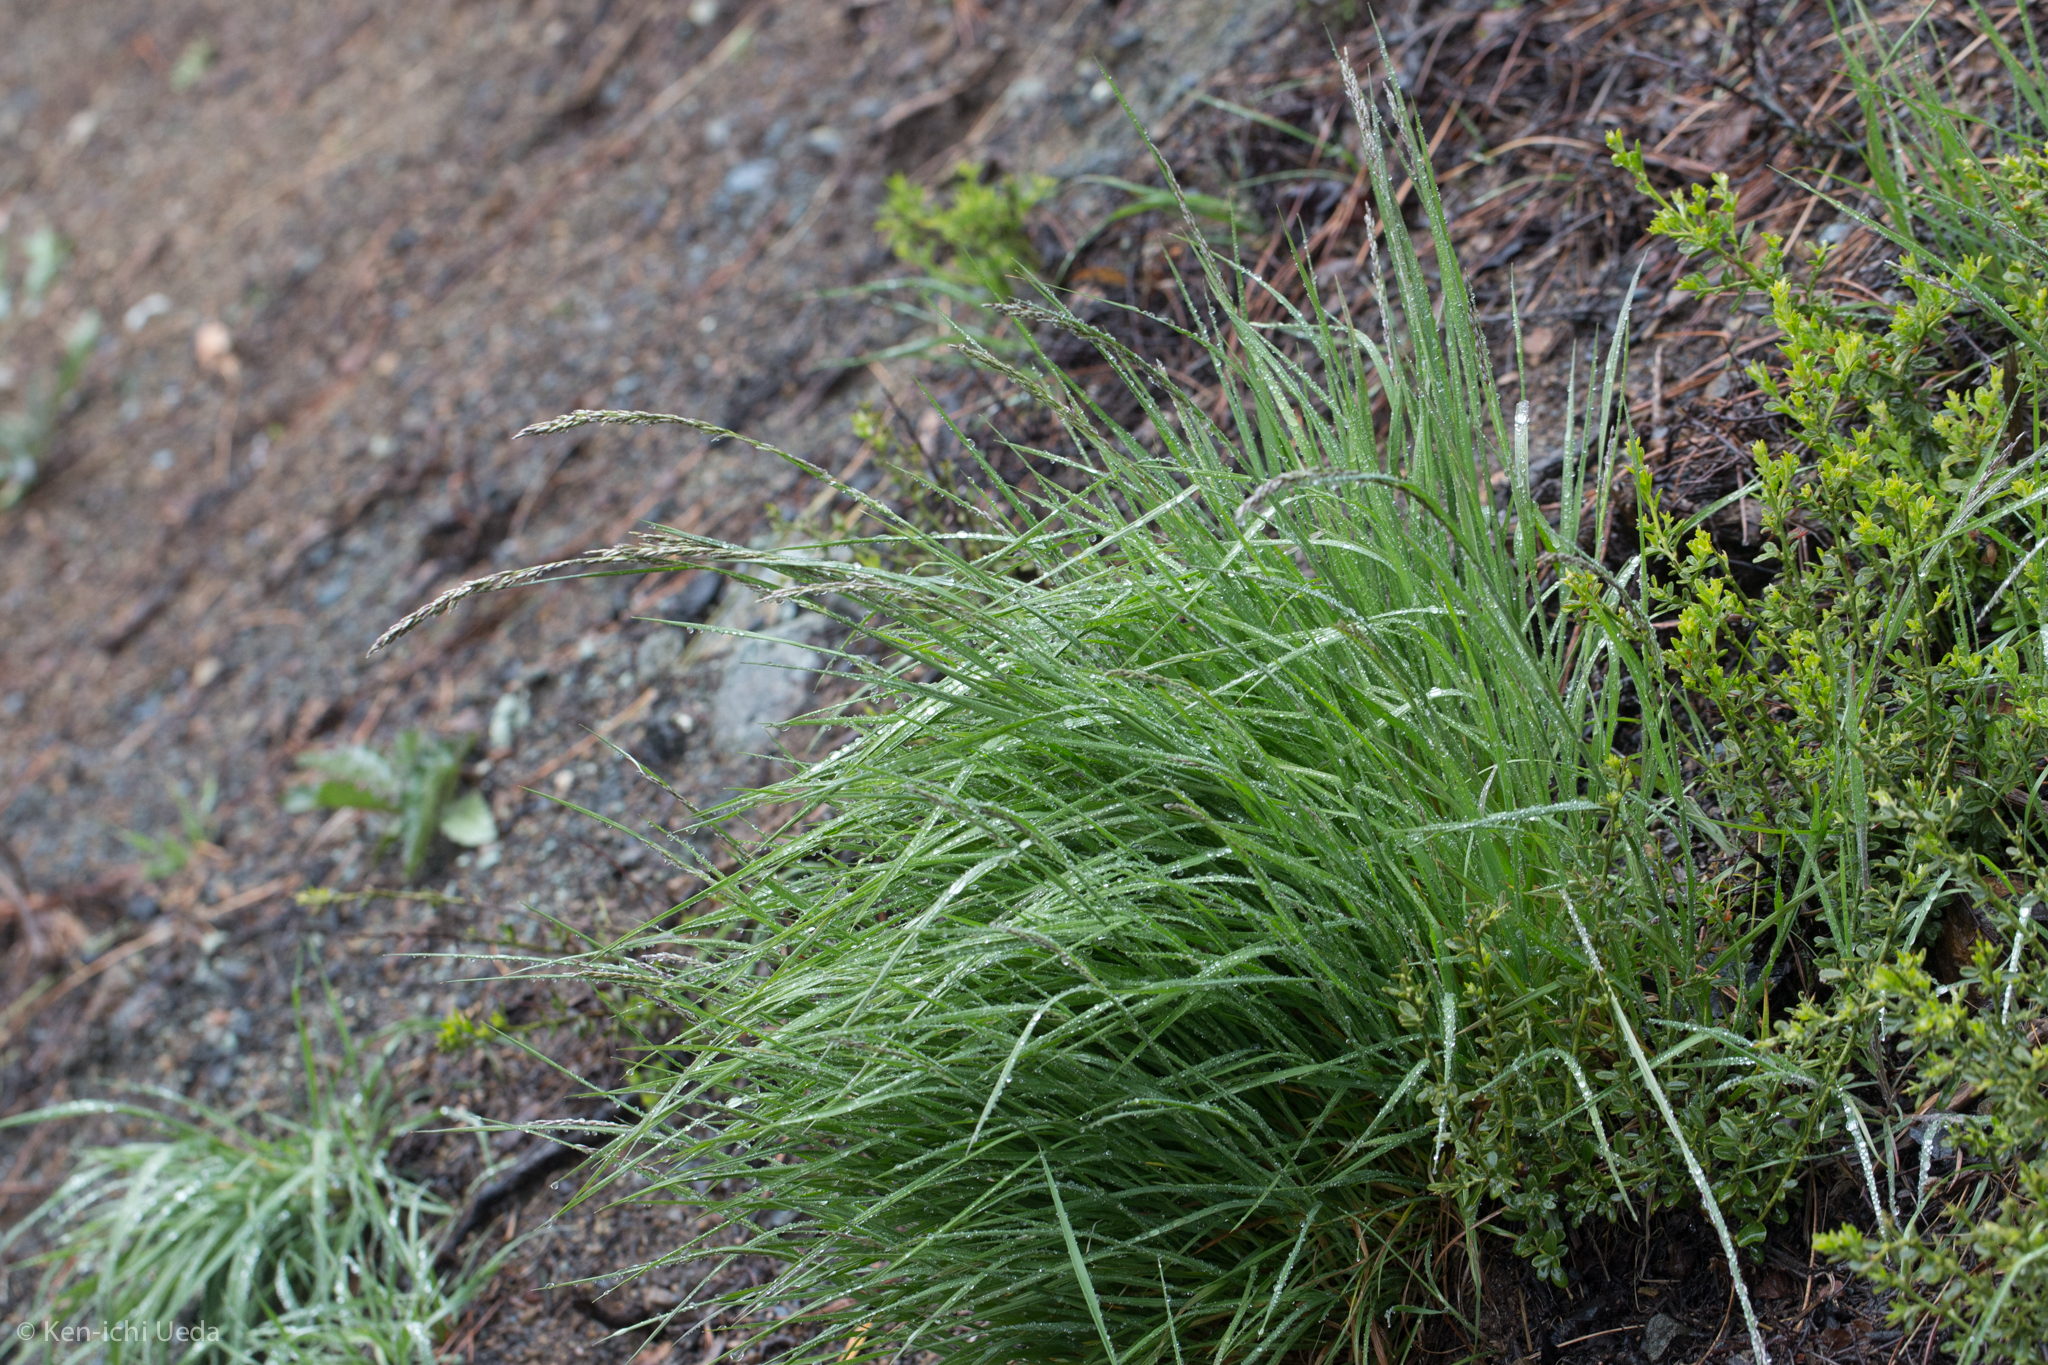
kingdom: Plantae
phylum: Tracheophyta
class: Liliopsida
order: Poales
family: Poaceae
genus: Melica
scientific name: Melica californica
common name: California melic
